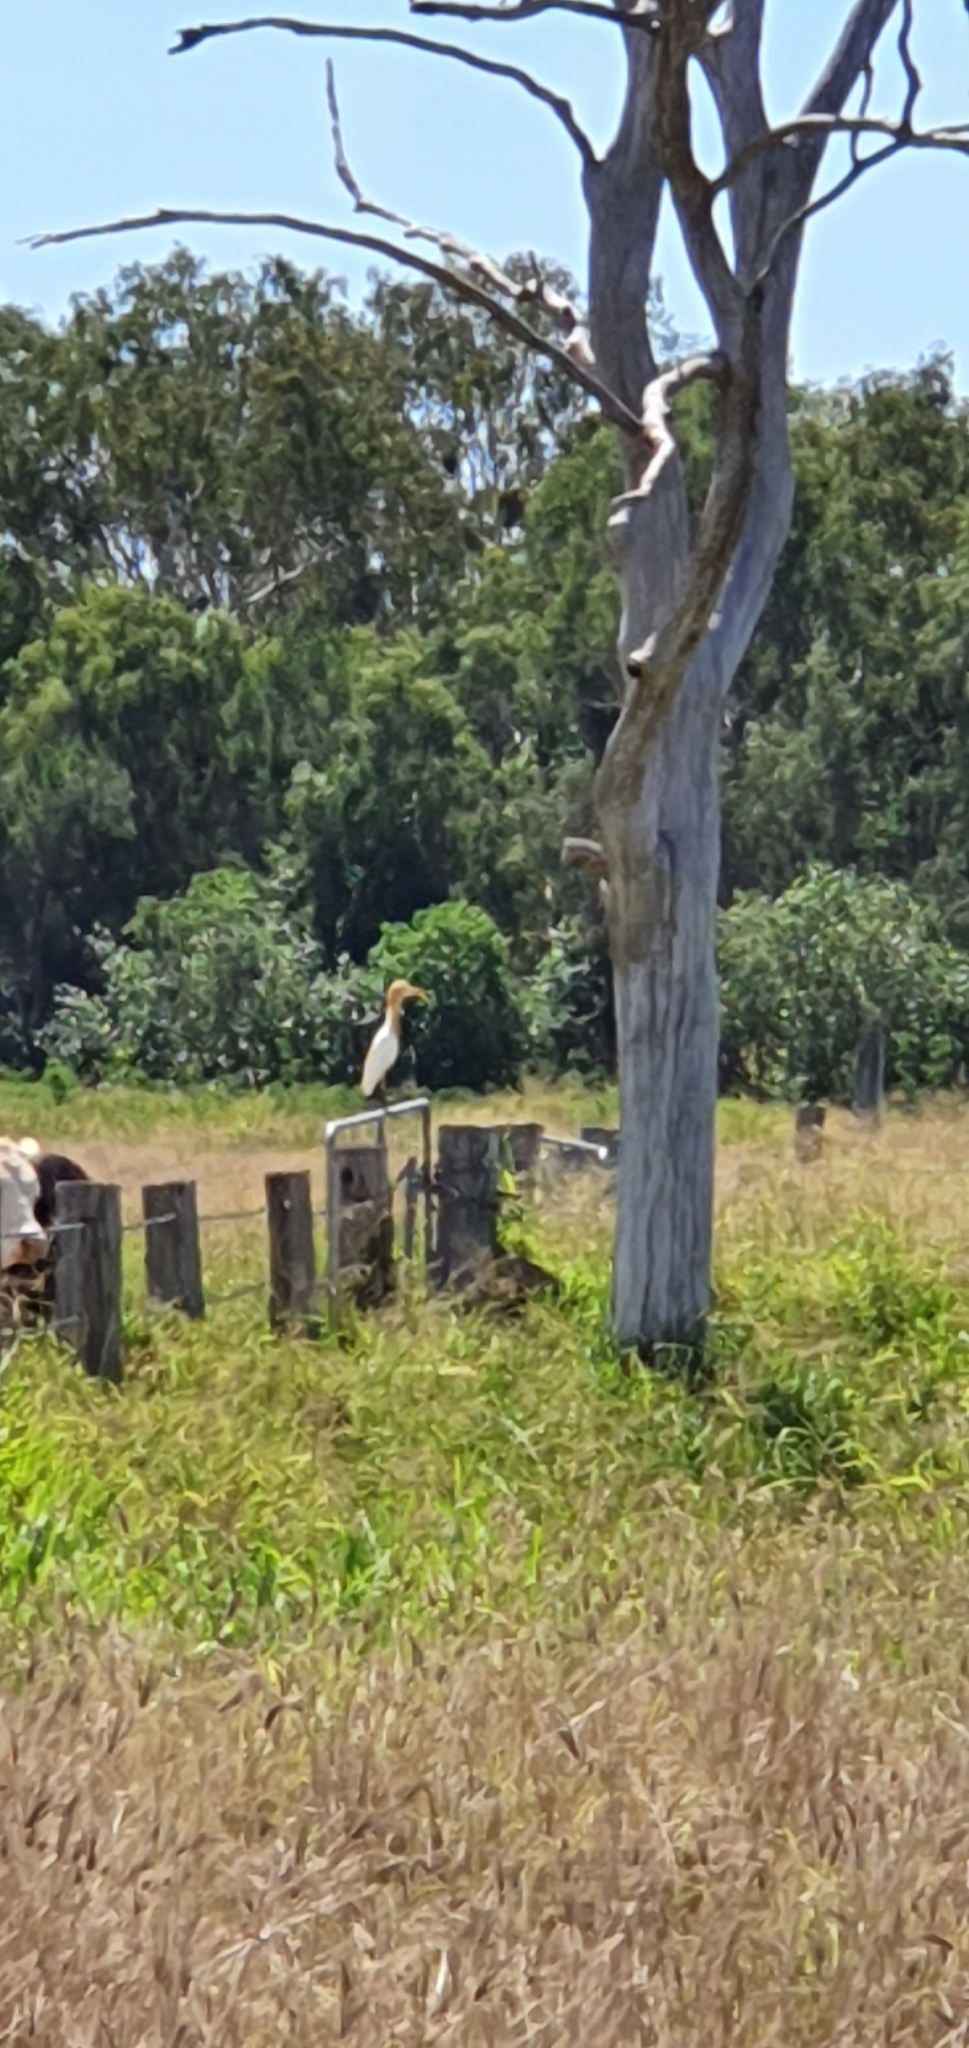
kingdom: Animalia
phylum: Chordata
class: Aves
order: Pelecaniformes
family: Ardeidae
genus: Bubulcus
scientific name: Bubulcus coromandus
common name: Eastern cattle egret
